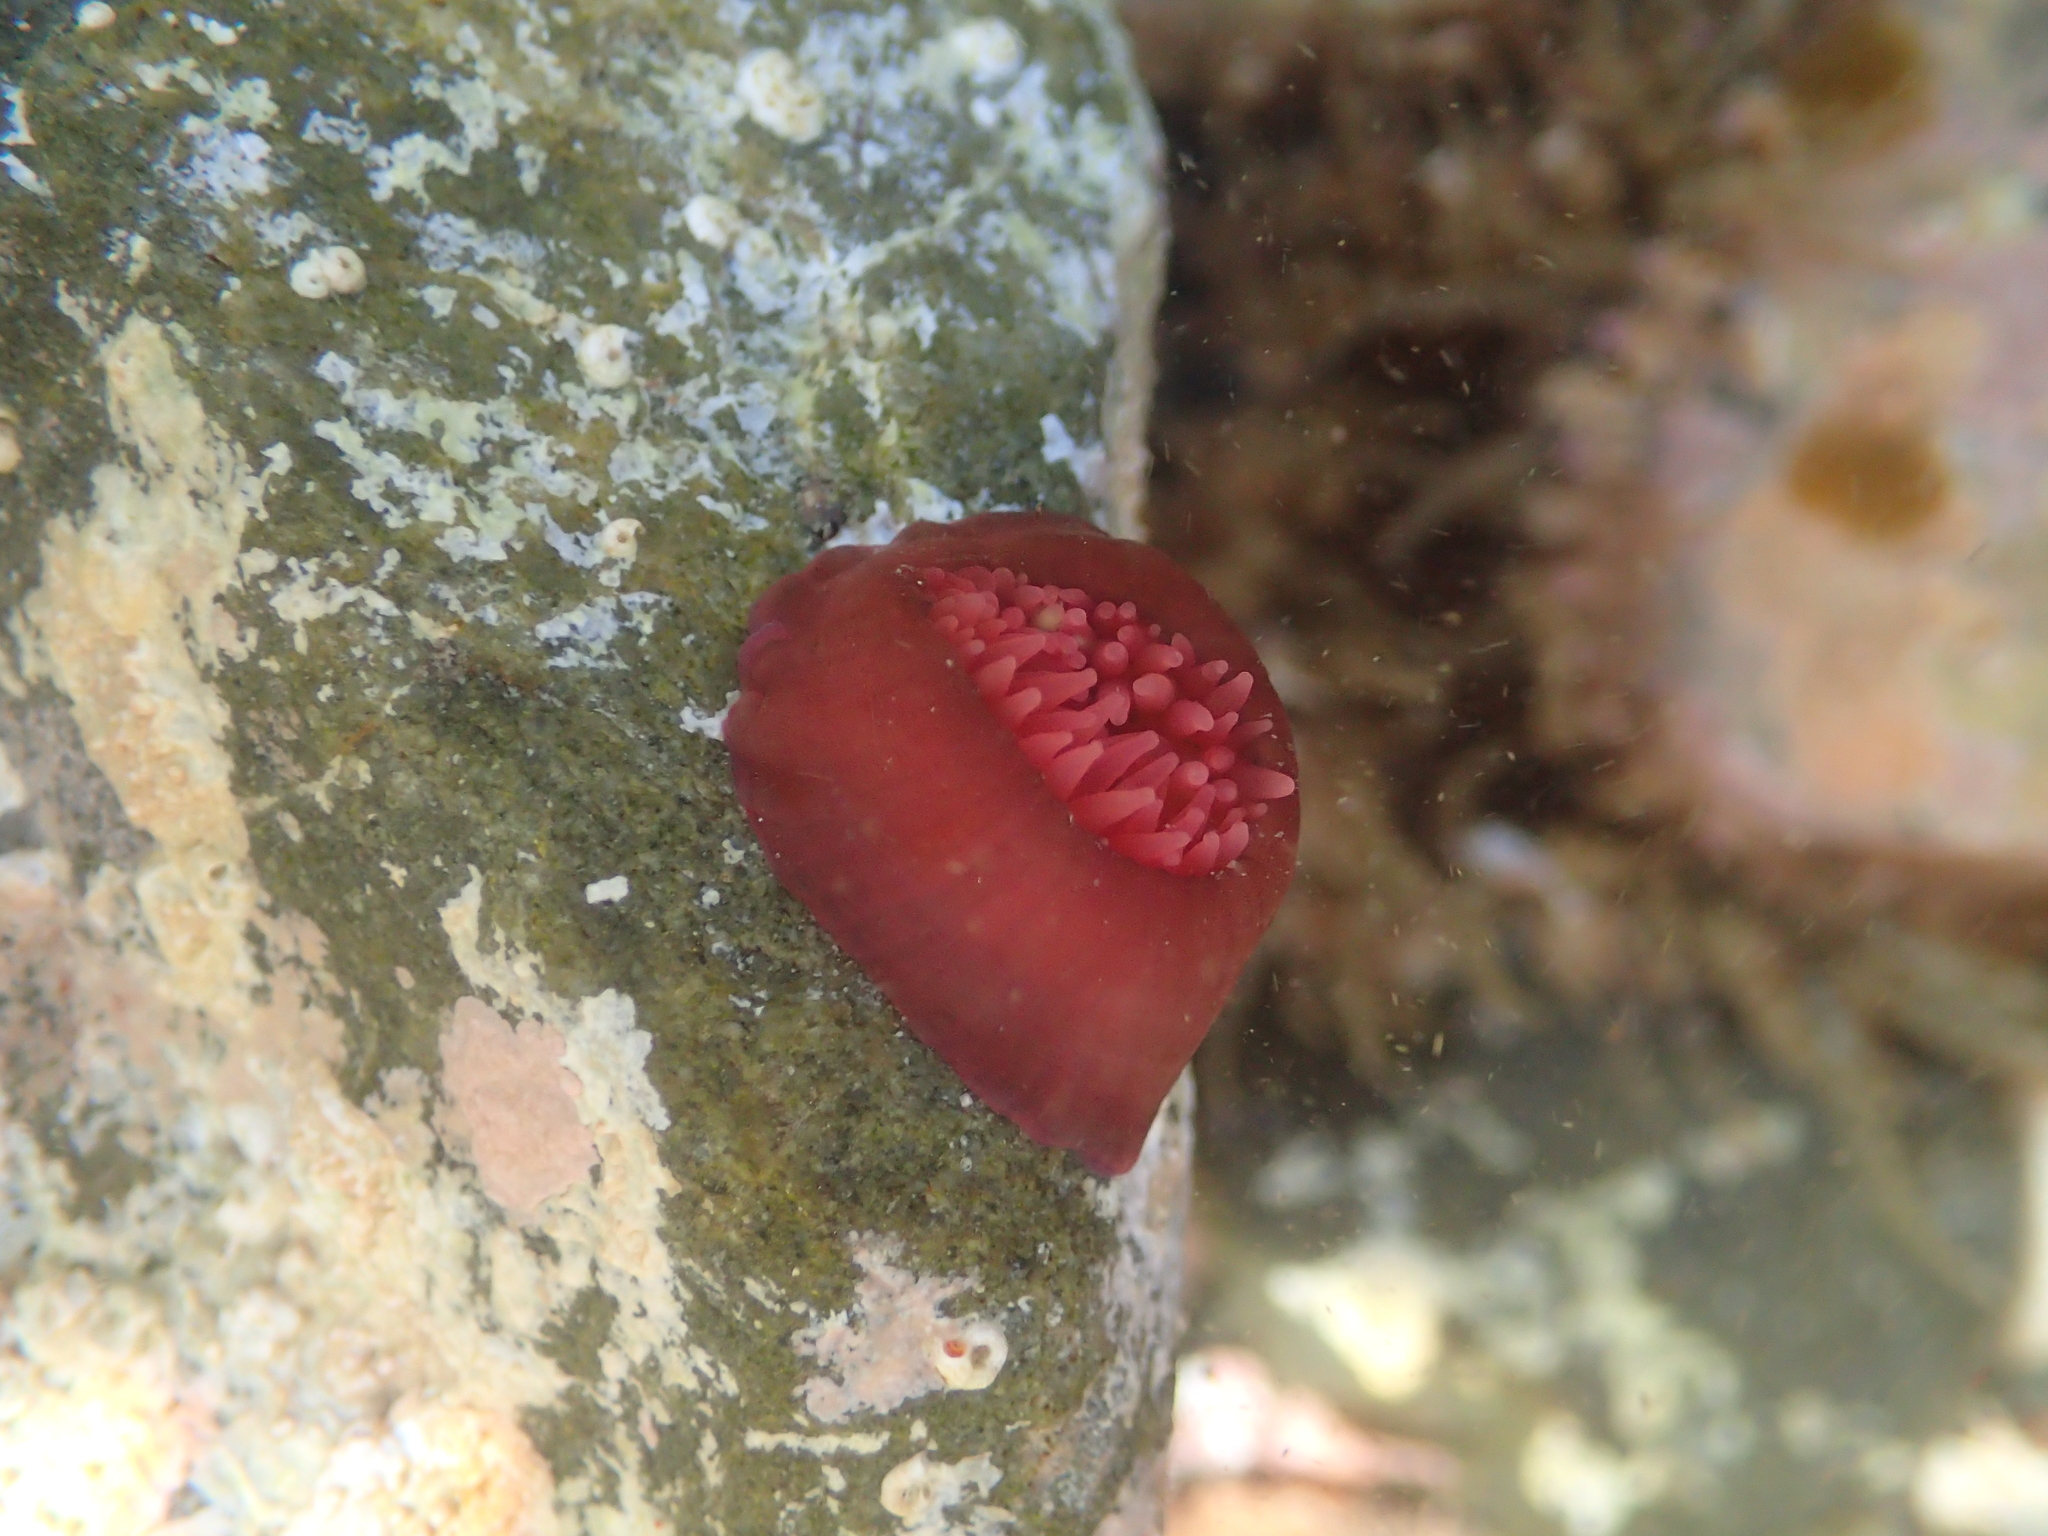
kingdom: Animalia
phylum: Cnidaria
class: Anthozoa
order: Actiniaria
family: Actiniidae
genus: Actinia
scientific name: Actinia tenebrosa
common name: Waratah anemone
